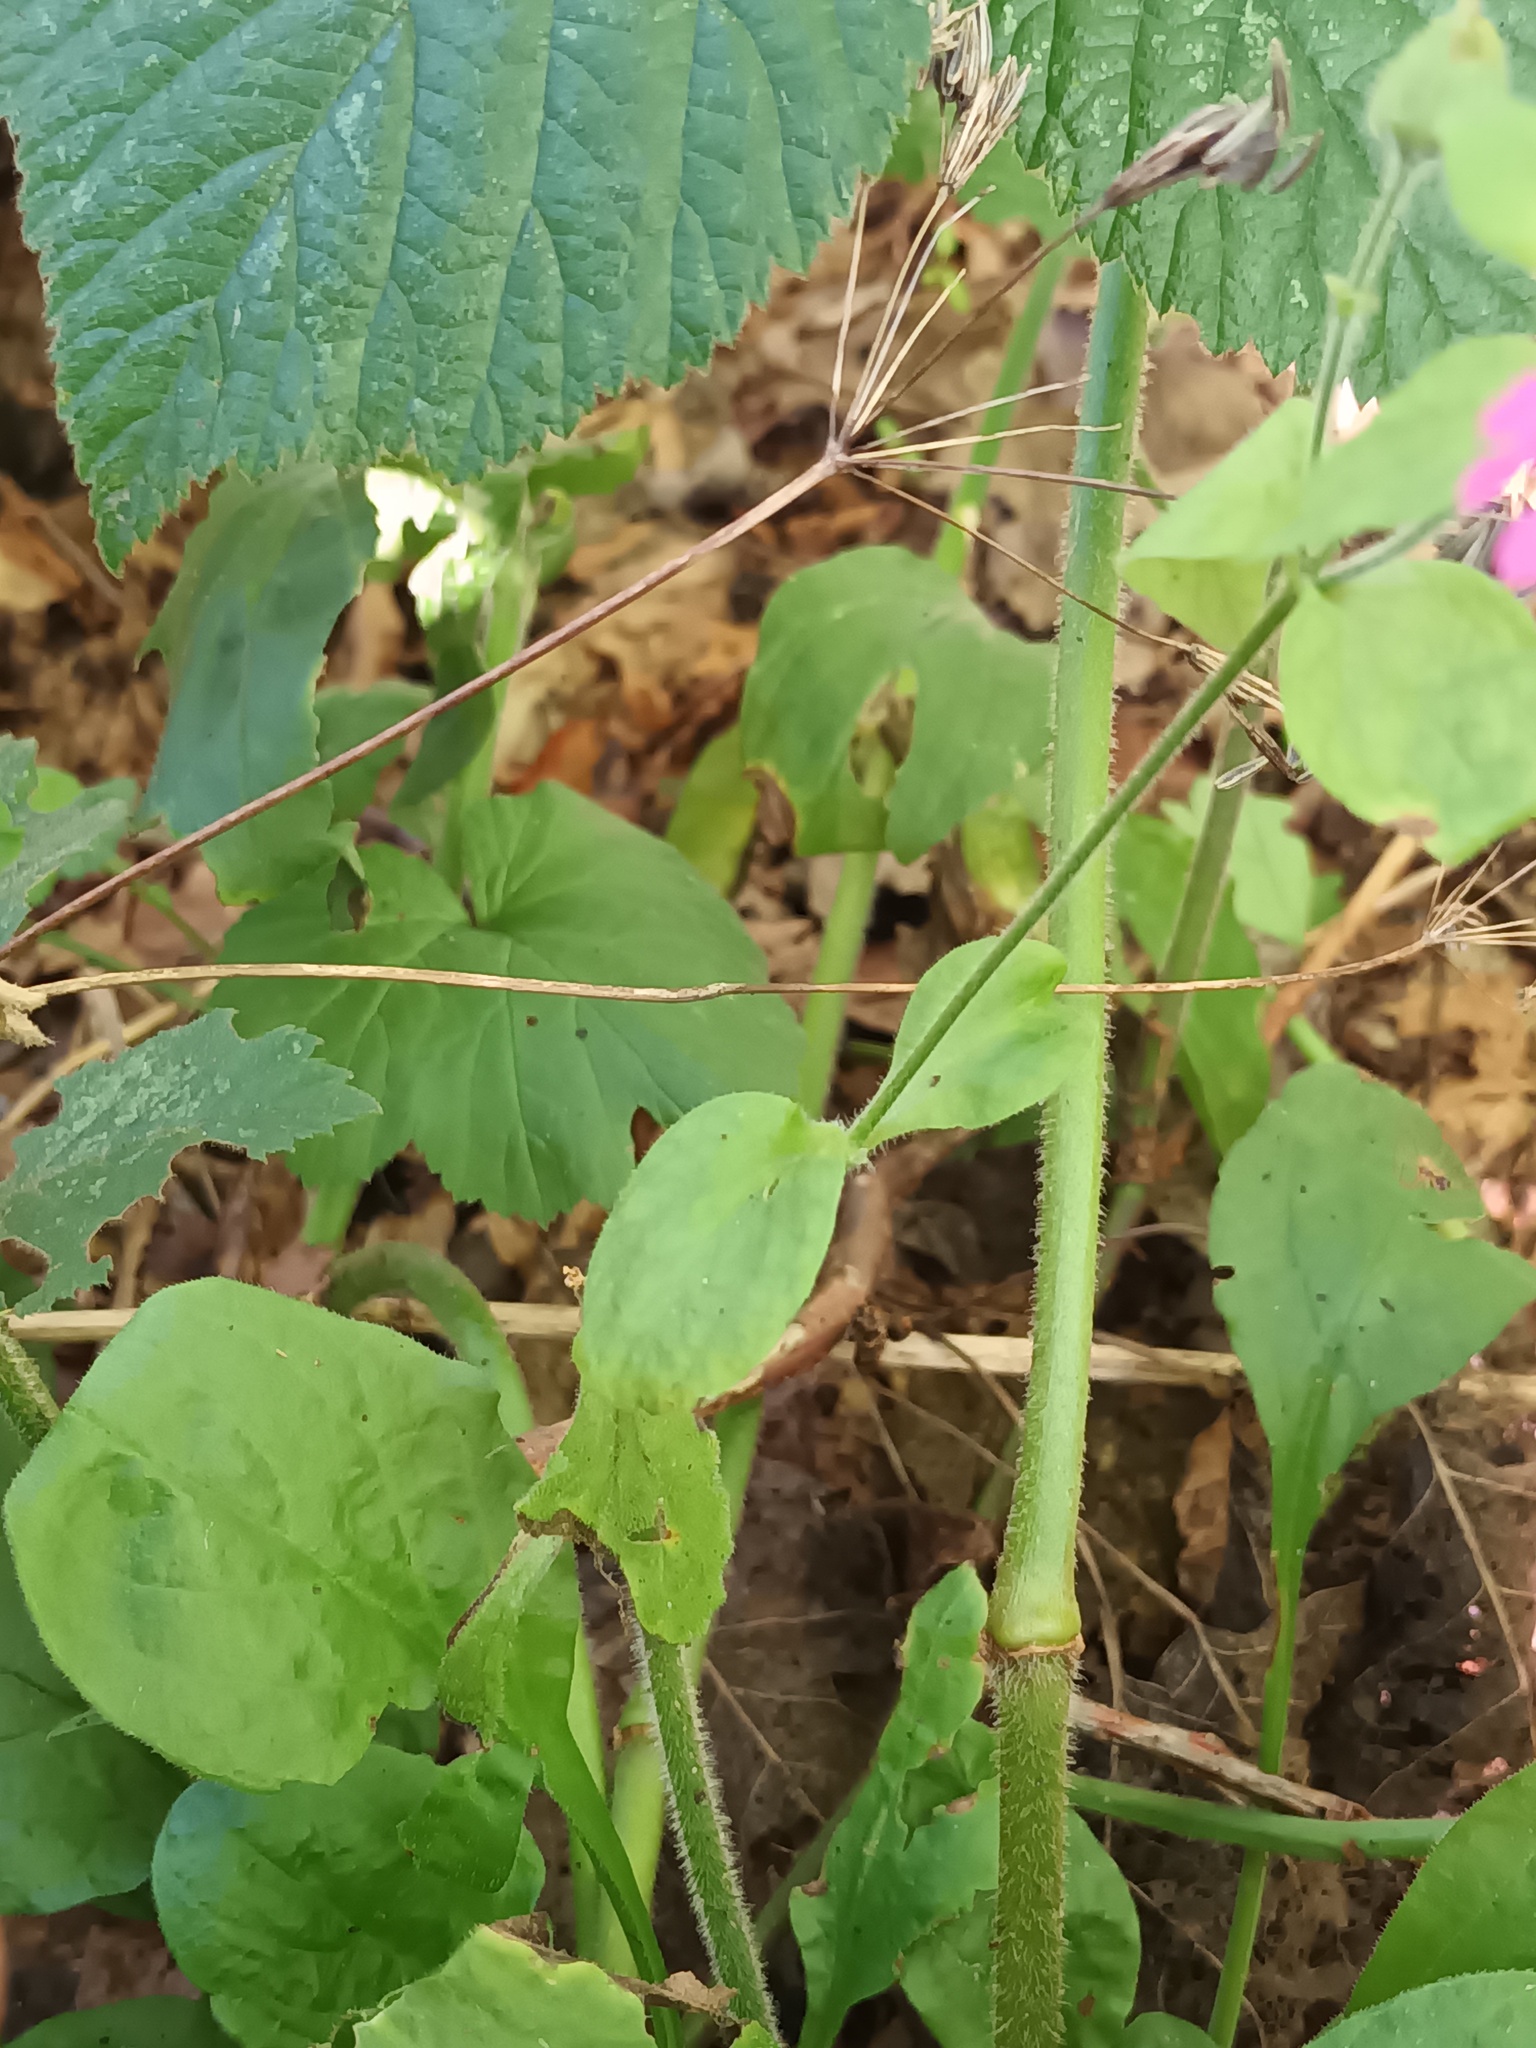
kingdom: Plantae
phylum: Tracheophyta
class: Magnoliopsida
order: Caryophyllales
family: Caryophyllaceae
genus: Silene
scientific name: Silene dioica
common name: Red campion
